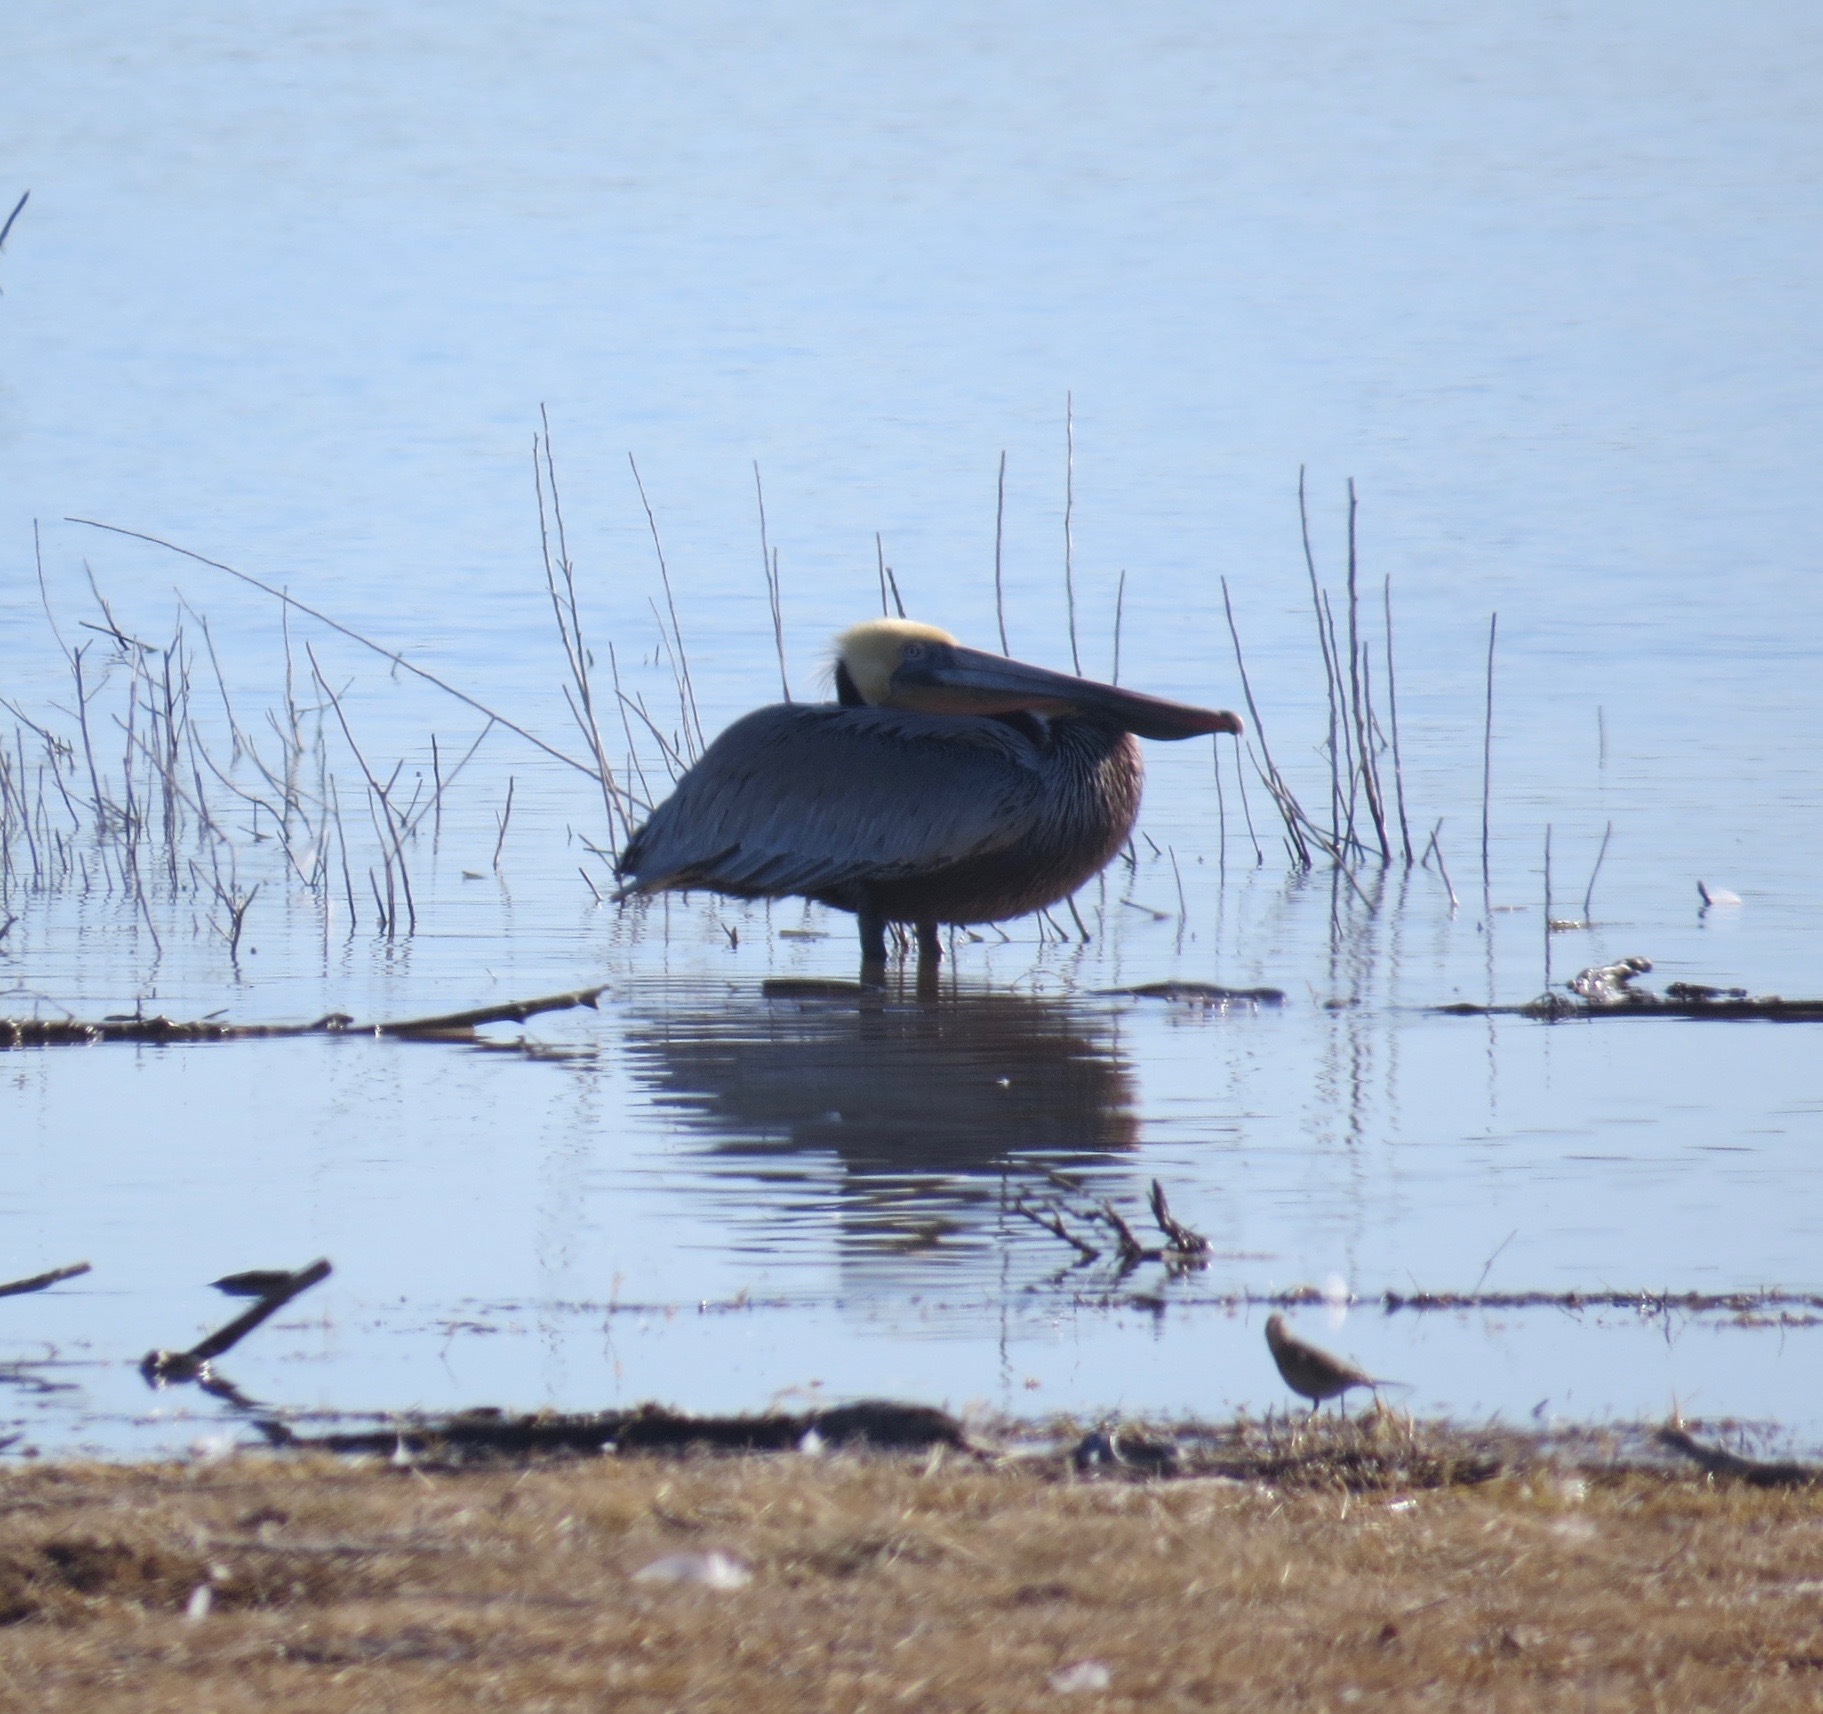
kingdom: Animalia
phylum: Chordata
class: Aves
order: Pelecaniformes
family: Pelecanidae
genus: Pelecanus
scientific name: Pelecanus occidentalis
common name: Brown pelican
